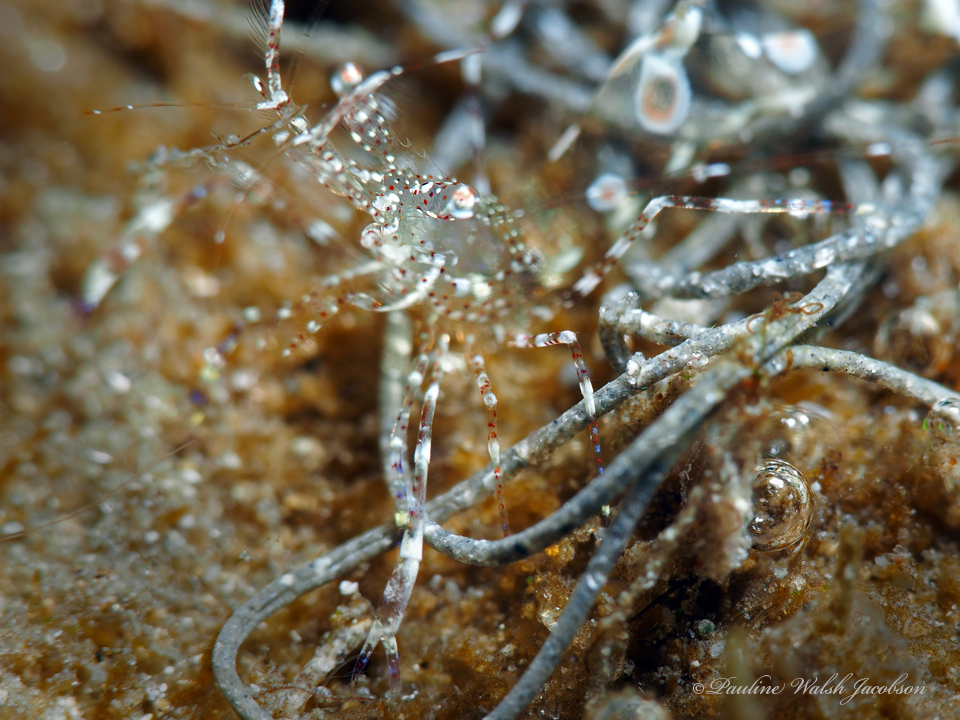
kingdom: Animalia
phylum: Arthropoda
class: Malacostraca
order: Decapoda
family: Palaemonidae
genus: Periclimenes
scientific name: Periclimenes yucatanicus
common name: Spotted cleaning shrimp
